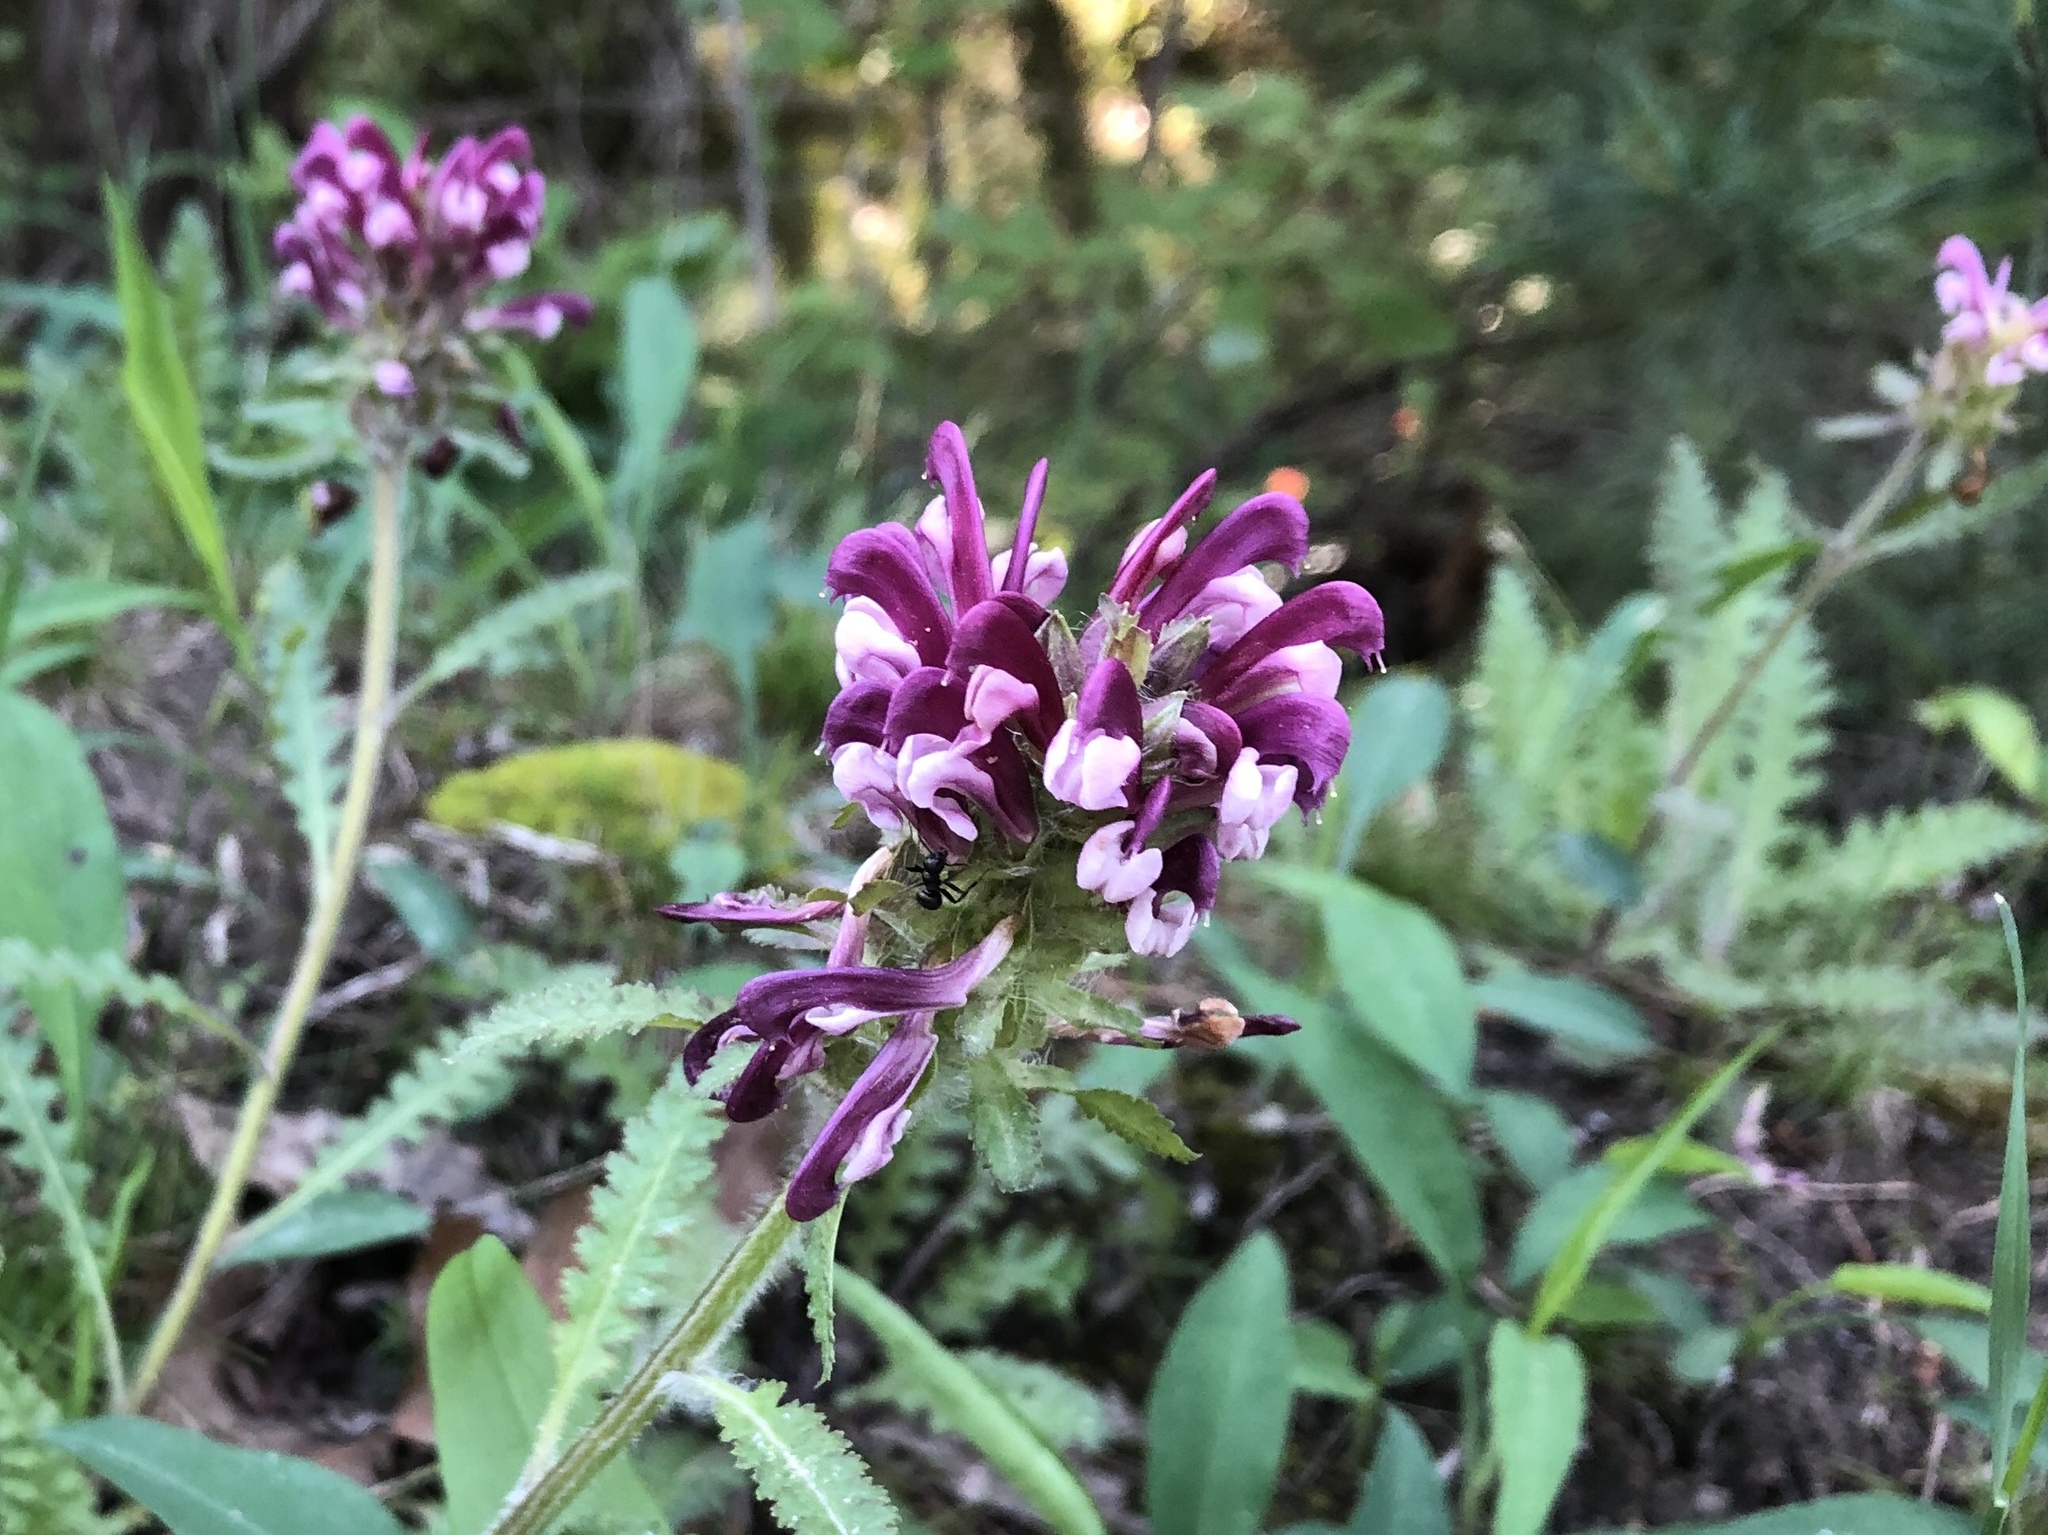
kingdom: Plantae
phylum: Tracheophyta
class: Magnoliopsida
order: Lamiales
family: Orobanchaceae
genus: Pedicularis
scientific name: Pedicularis canadensis
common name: Early lousewort
